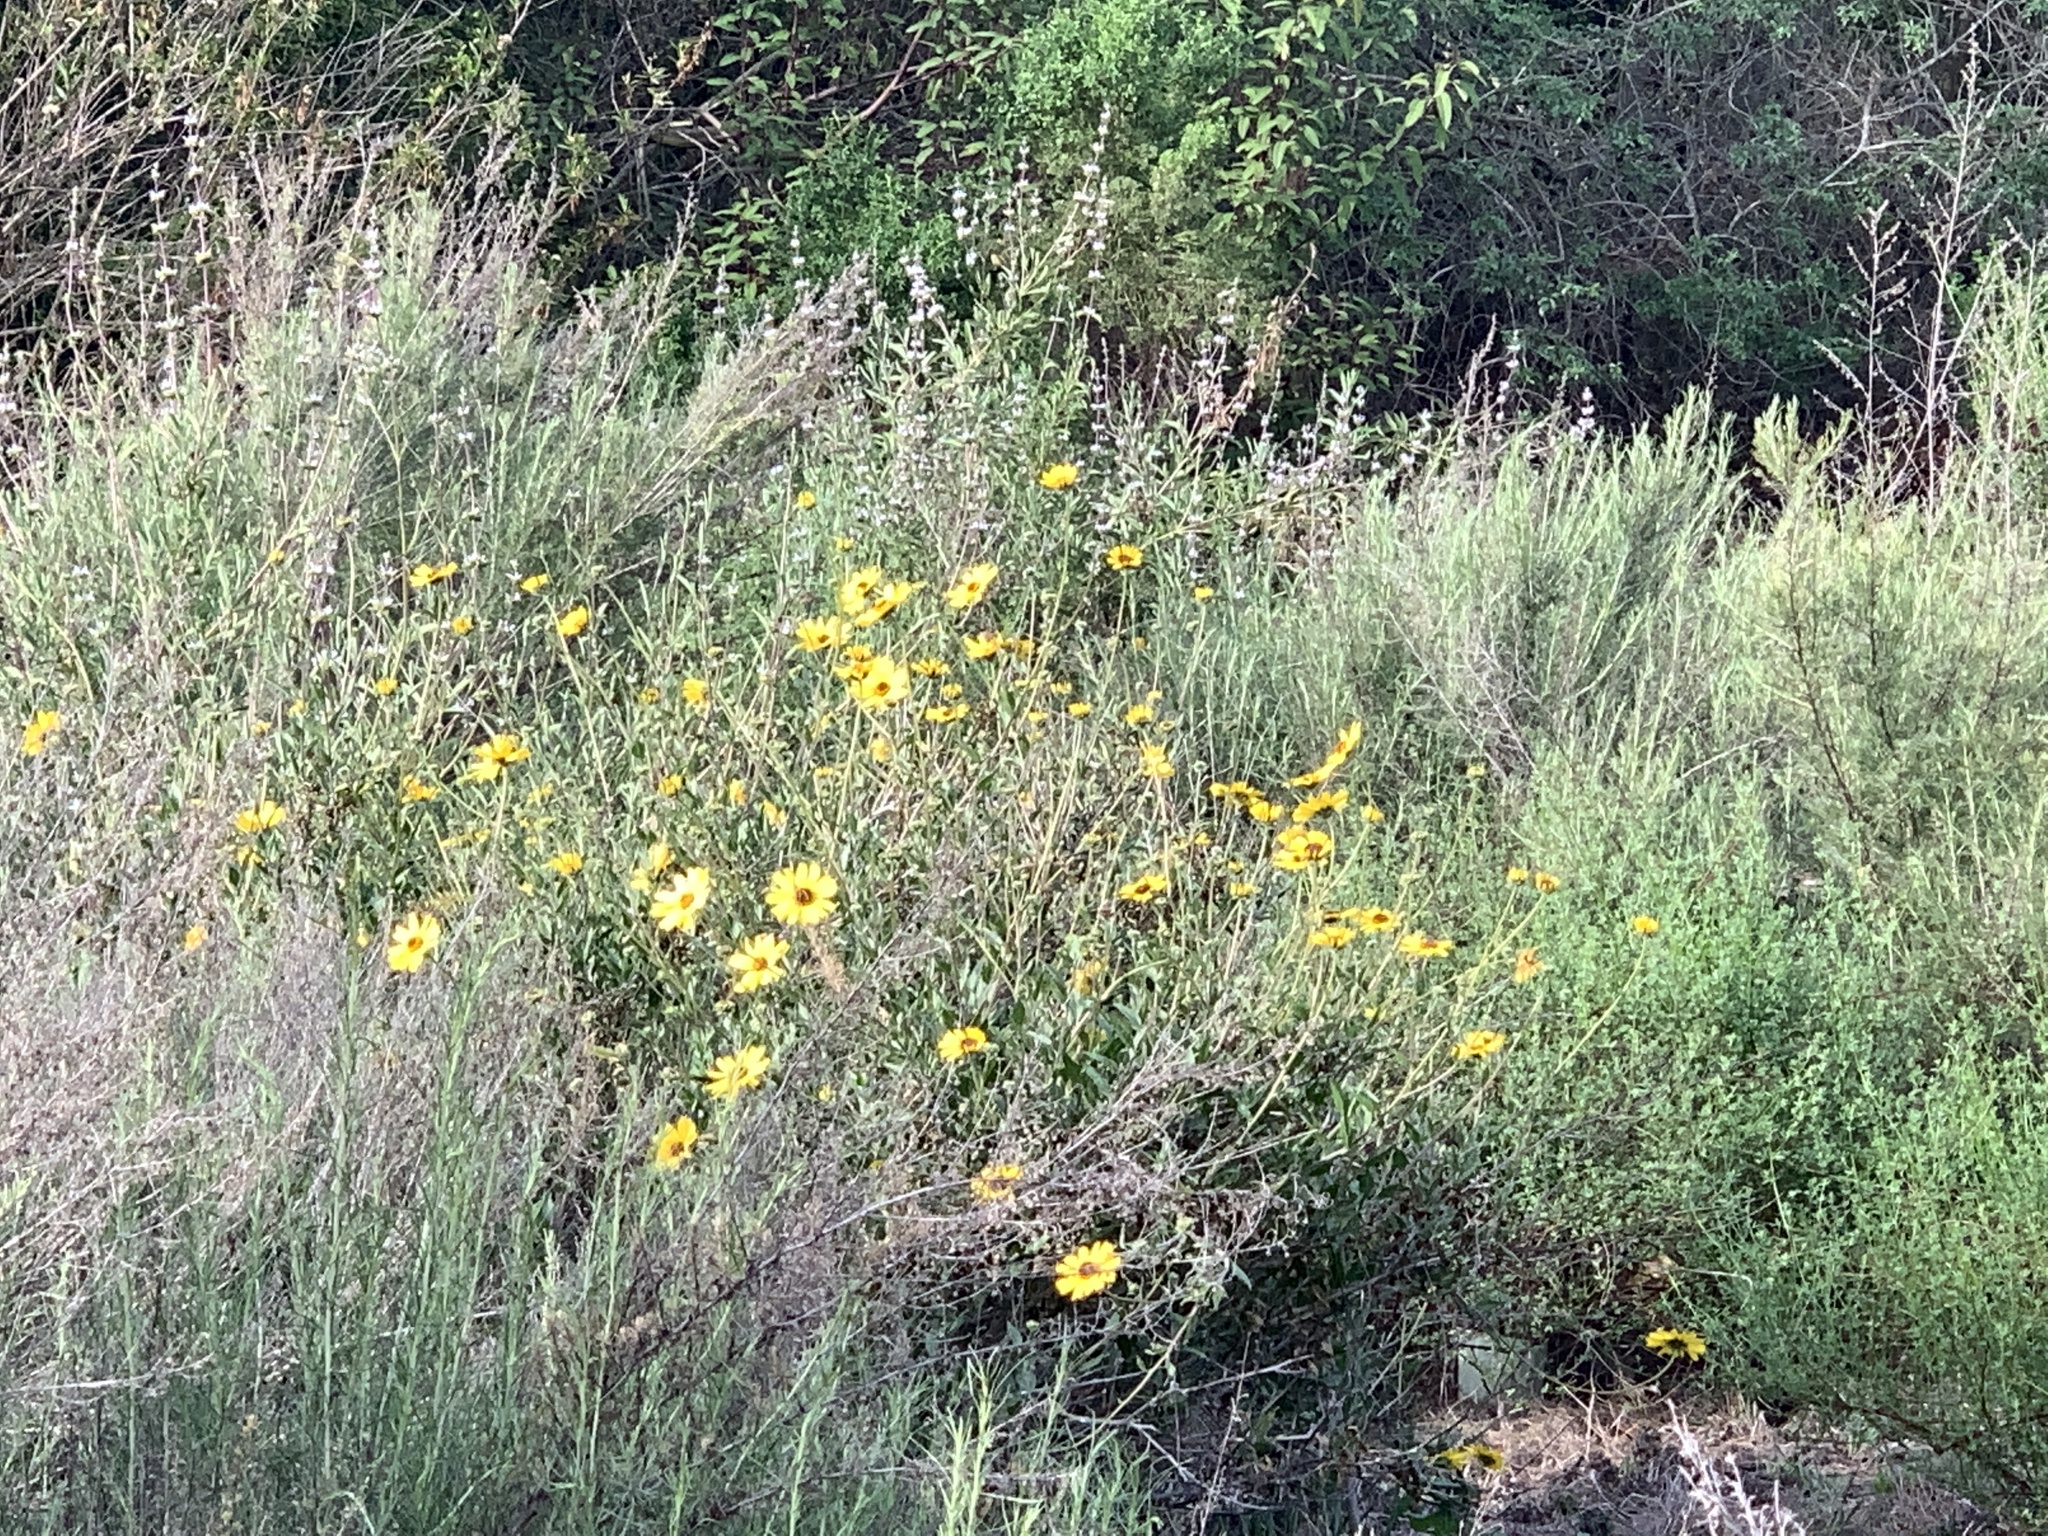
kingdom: Plantae
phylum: Tracheophyta
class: Magnoliopsida
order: Asterales
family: Asteraceae
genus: Encelia
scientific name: Encelia californica
